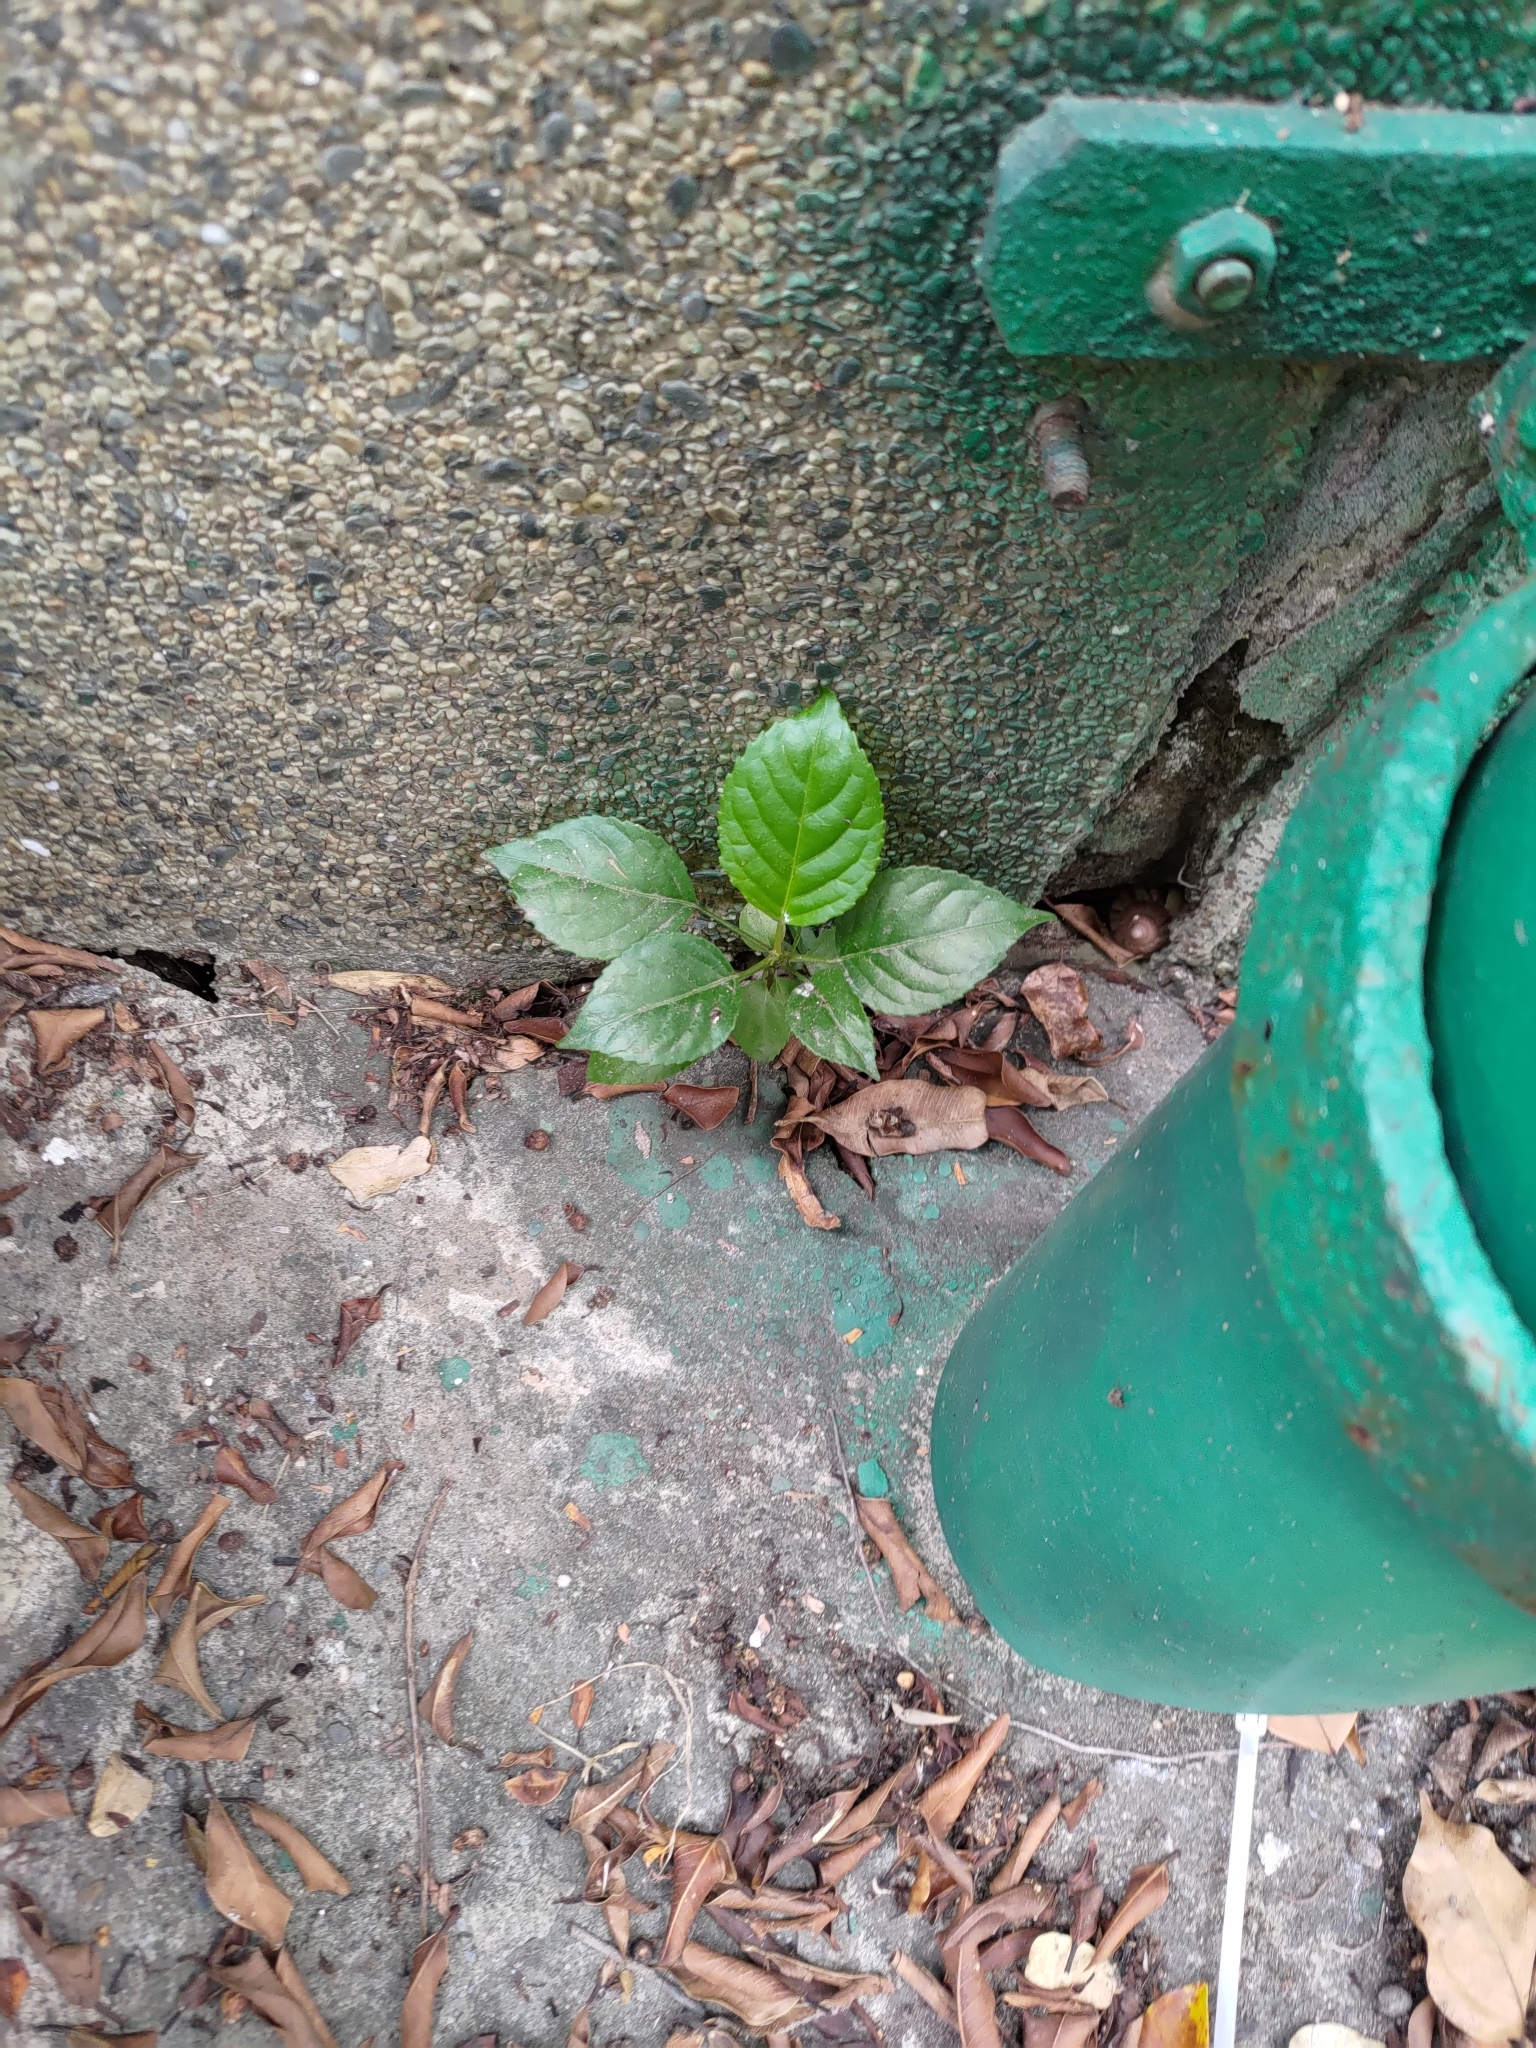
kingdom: Plantae
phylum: Tracheophyta
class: Magnoliopsida
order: Rosales
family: Moraceae
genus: Morus
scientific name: Morus indica
